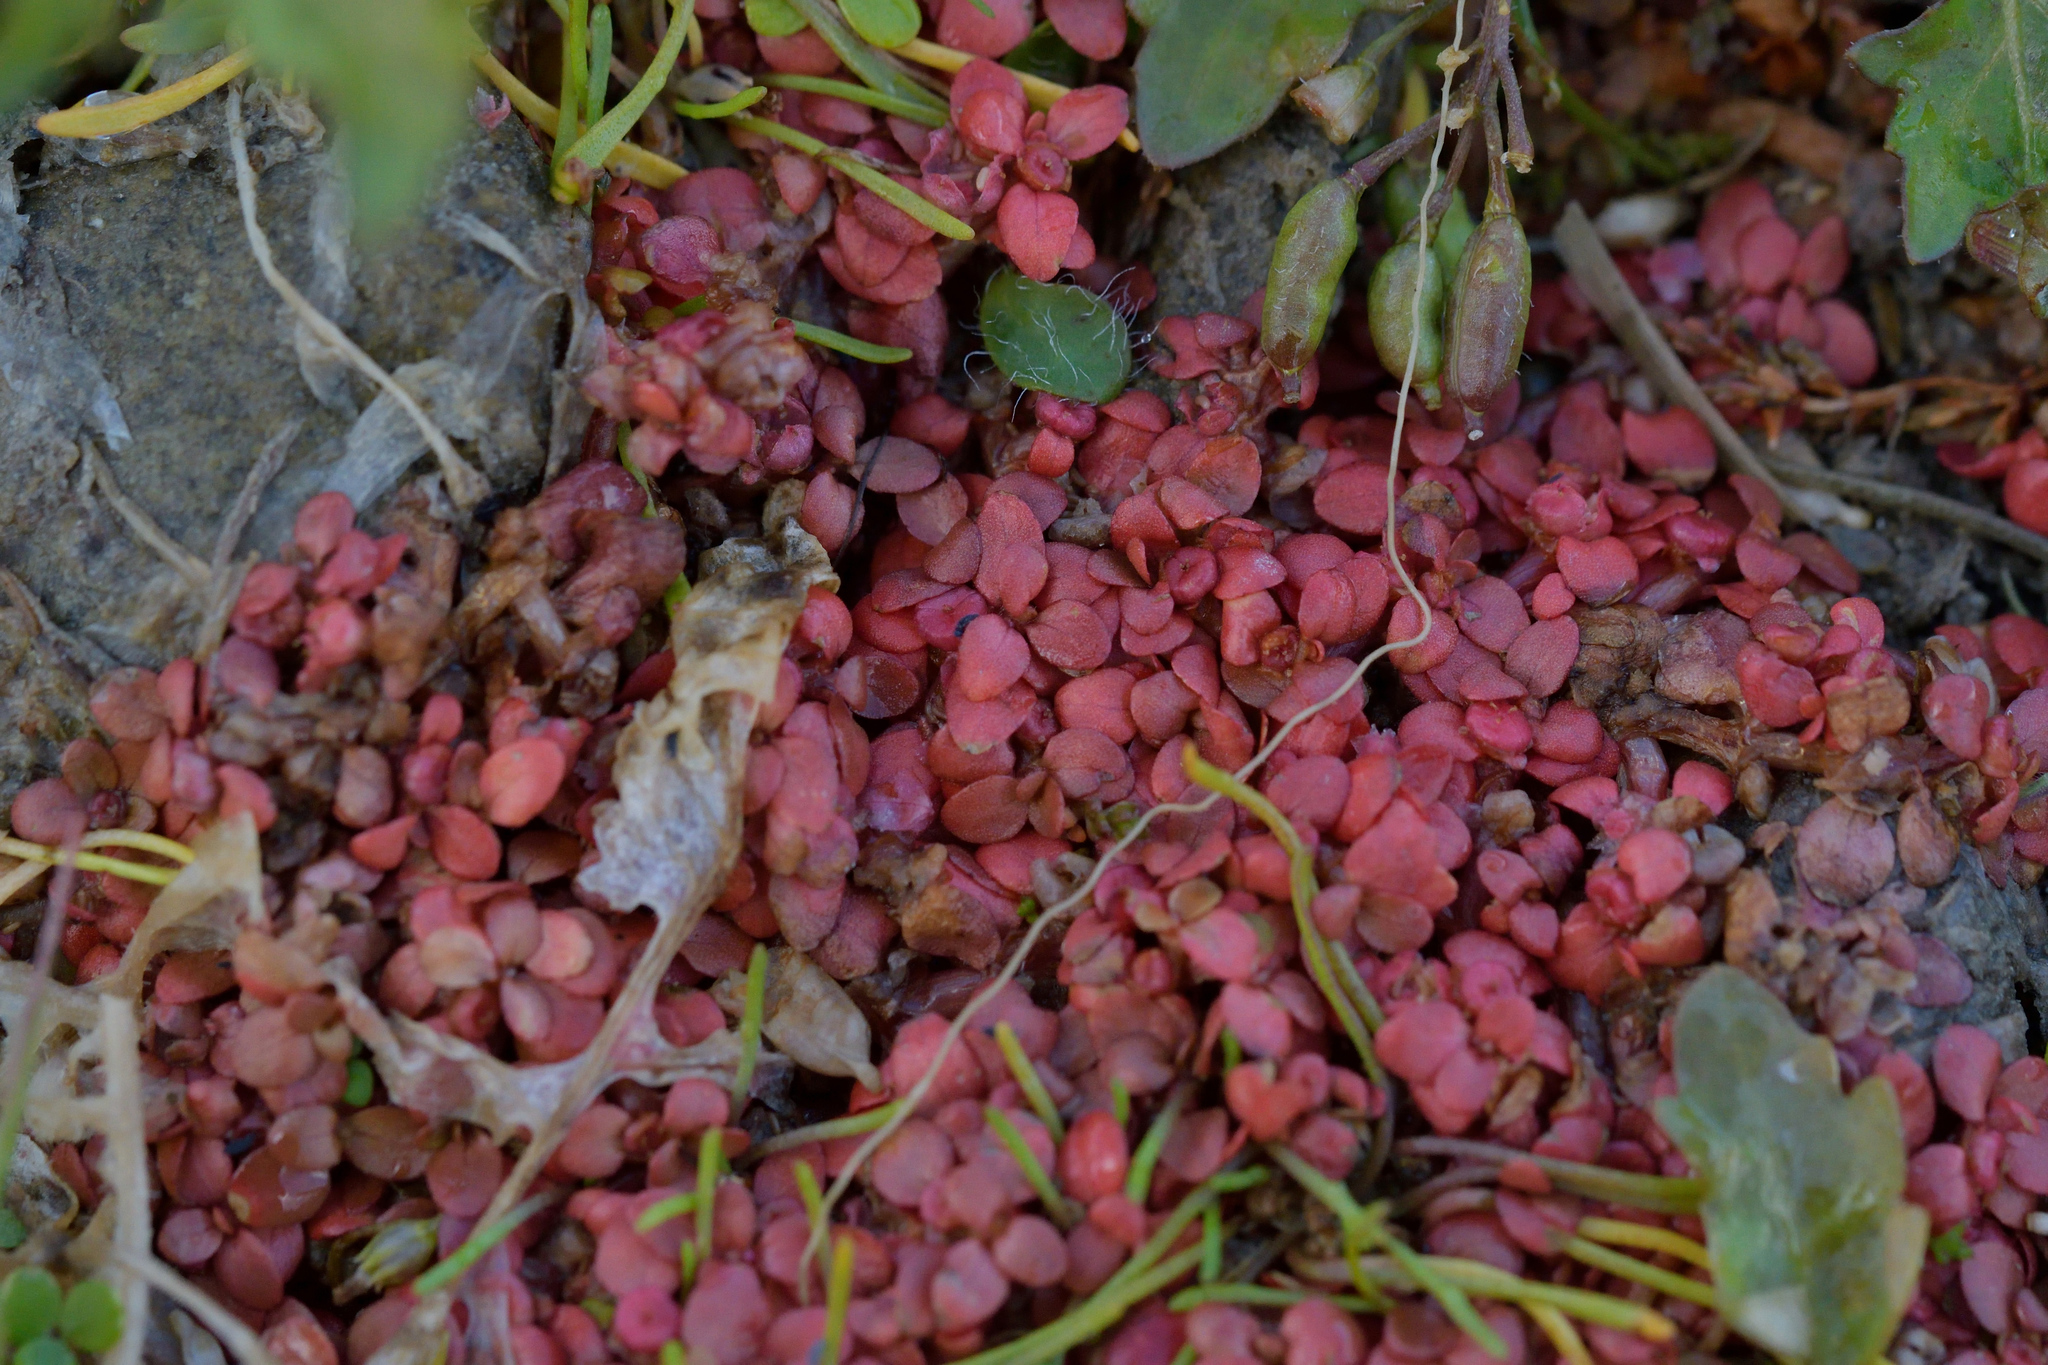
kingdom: Plantae
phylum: Tracheophyta
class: Magnoliopsida
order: Malpighiales
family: Elatinaceae
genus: Elatine
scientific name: Elatine gratioloides
